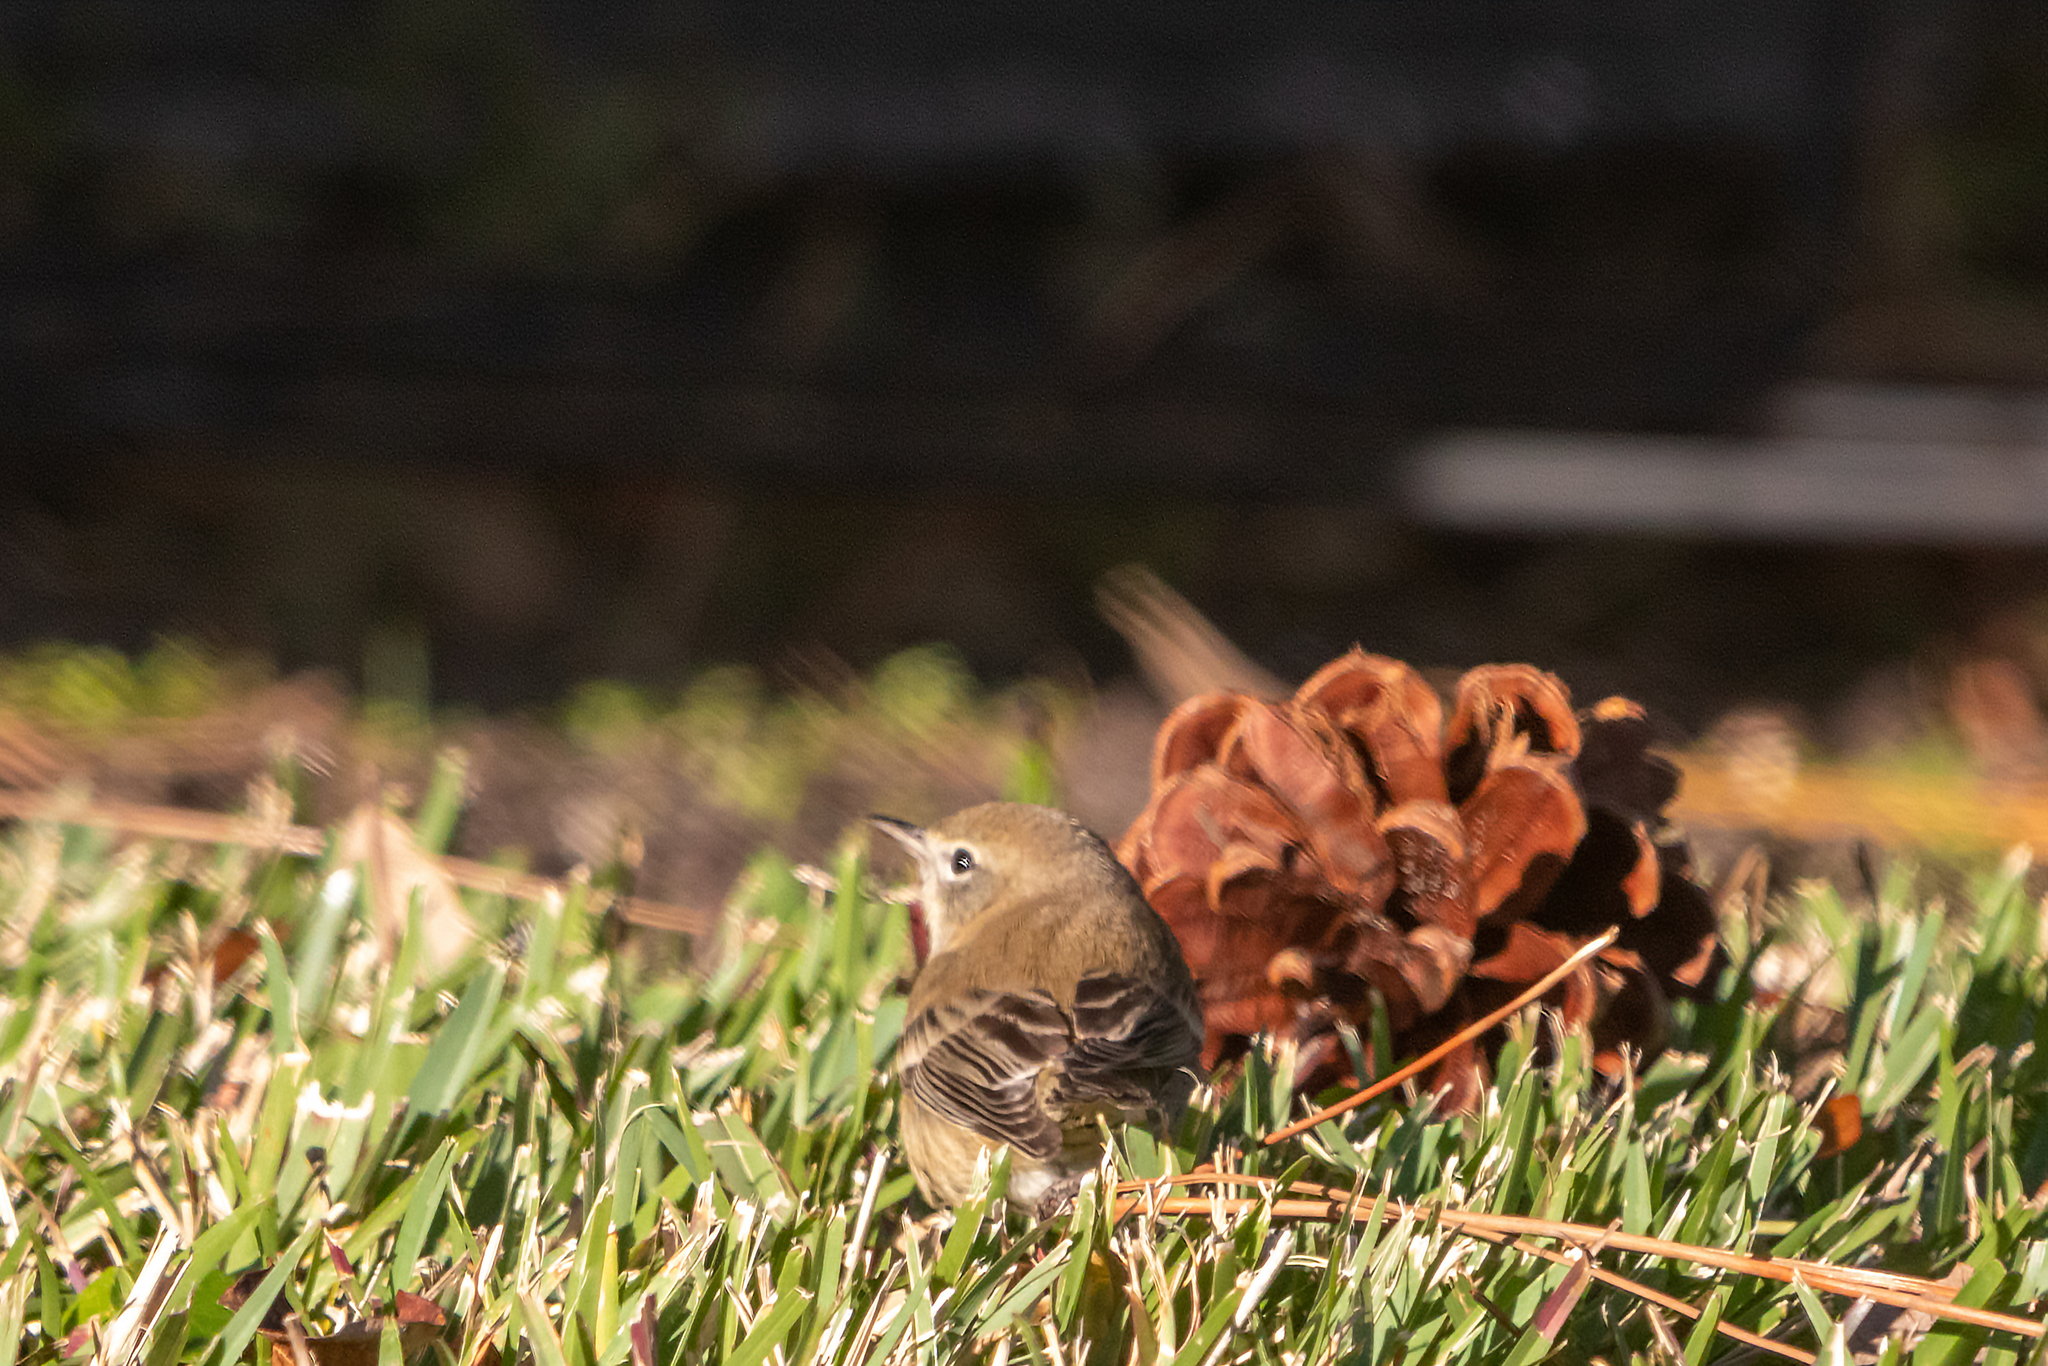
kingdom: Animalia
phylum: Chordata
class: Aves
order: Passeriformes
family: Parulidae
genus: Setophaga
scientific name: Setophaga pinus
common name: Pine warbler
